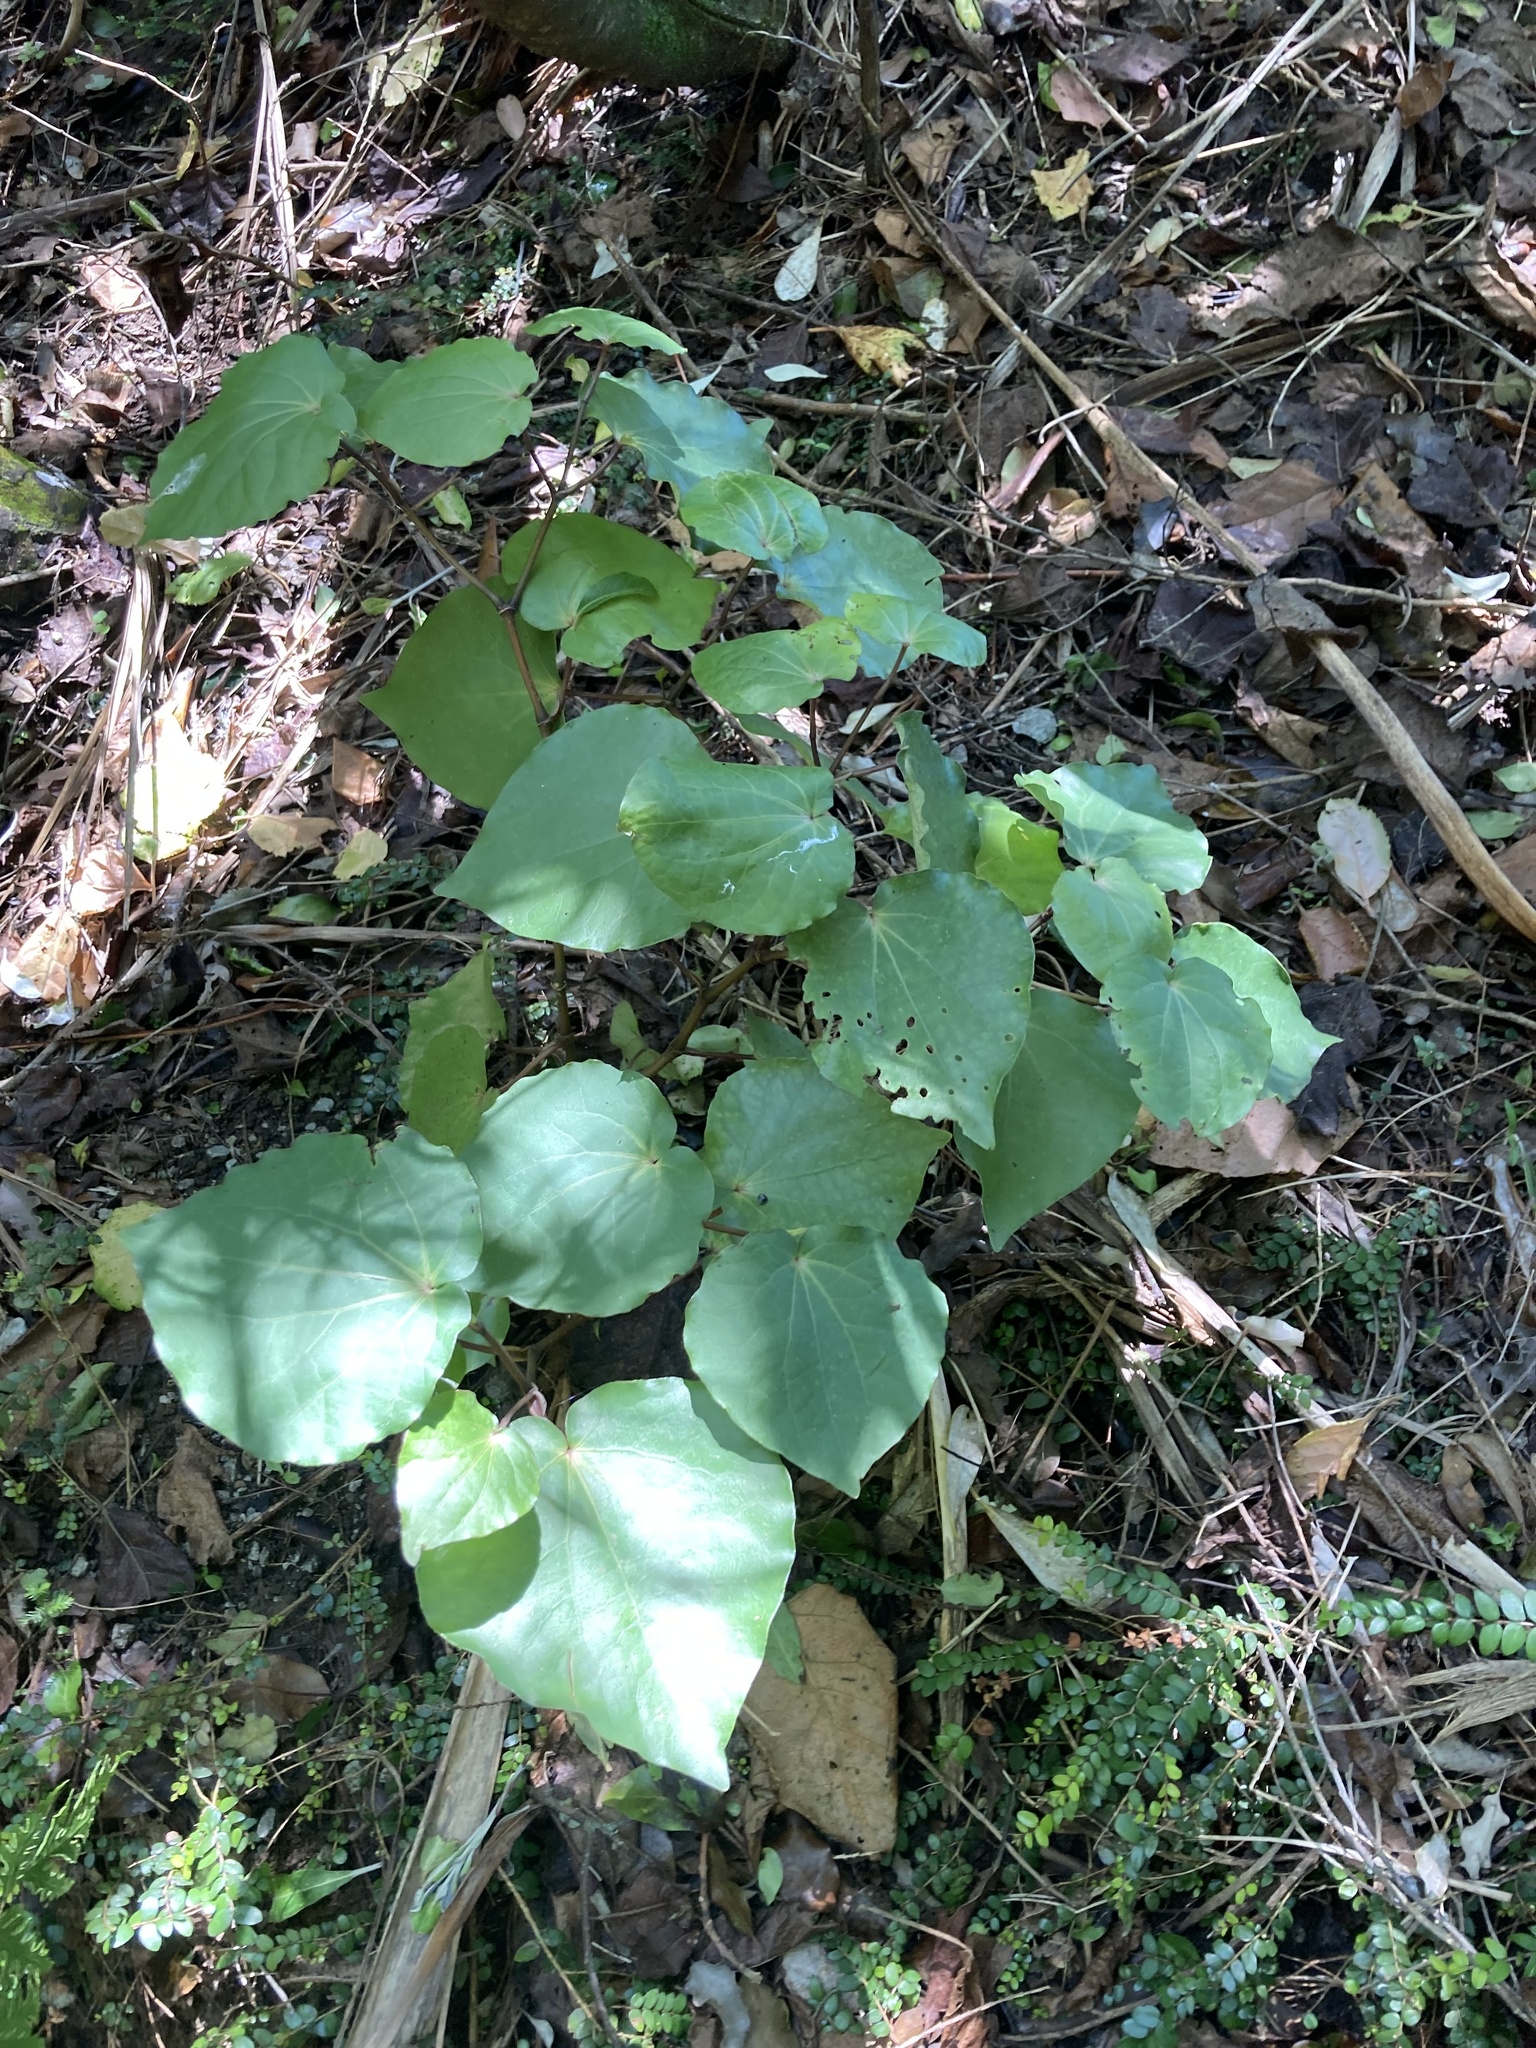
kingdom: Plantae
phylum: Tracheophyta
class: Magnoliopsida
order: Piperales
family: Piperaceae
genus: Macropiper
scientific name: Macropiper excelsum
